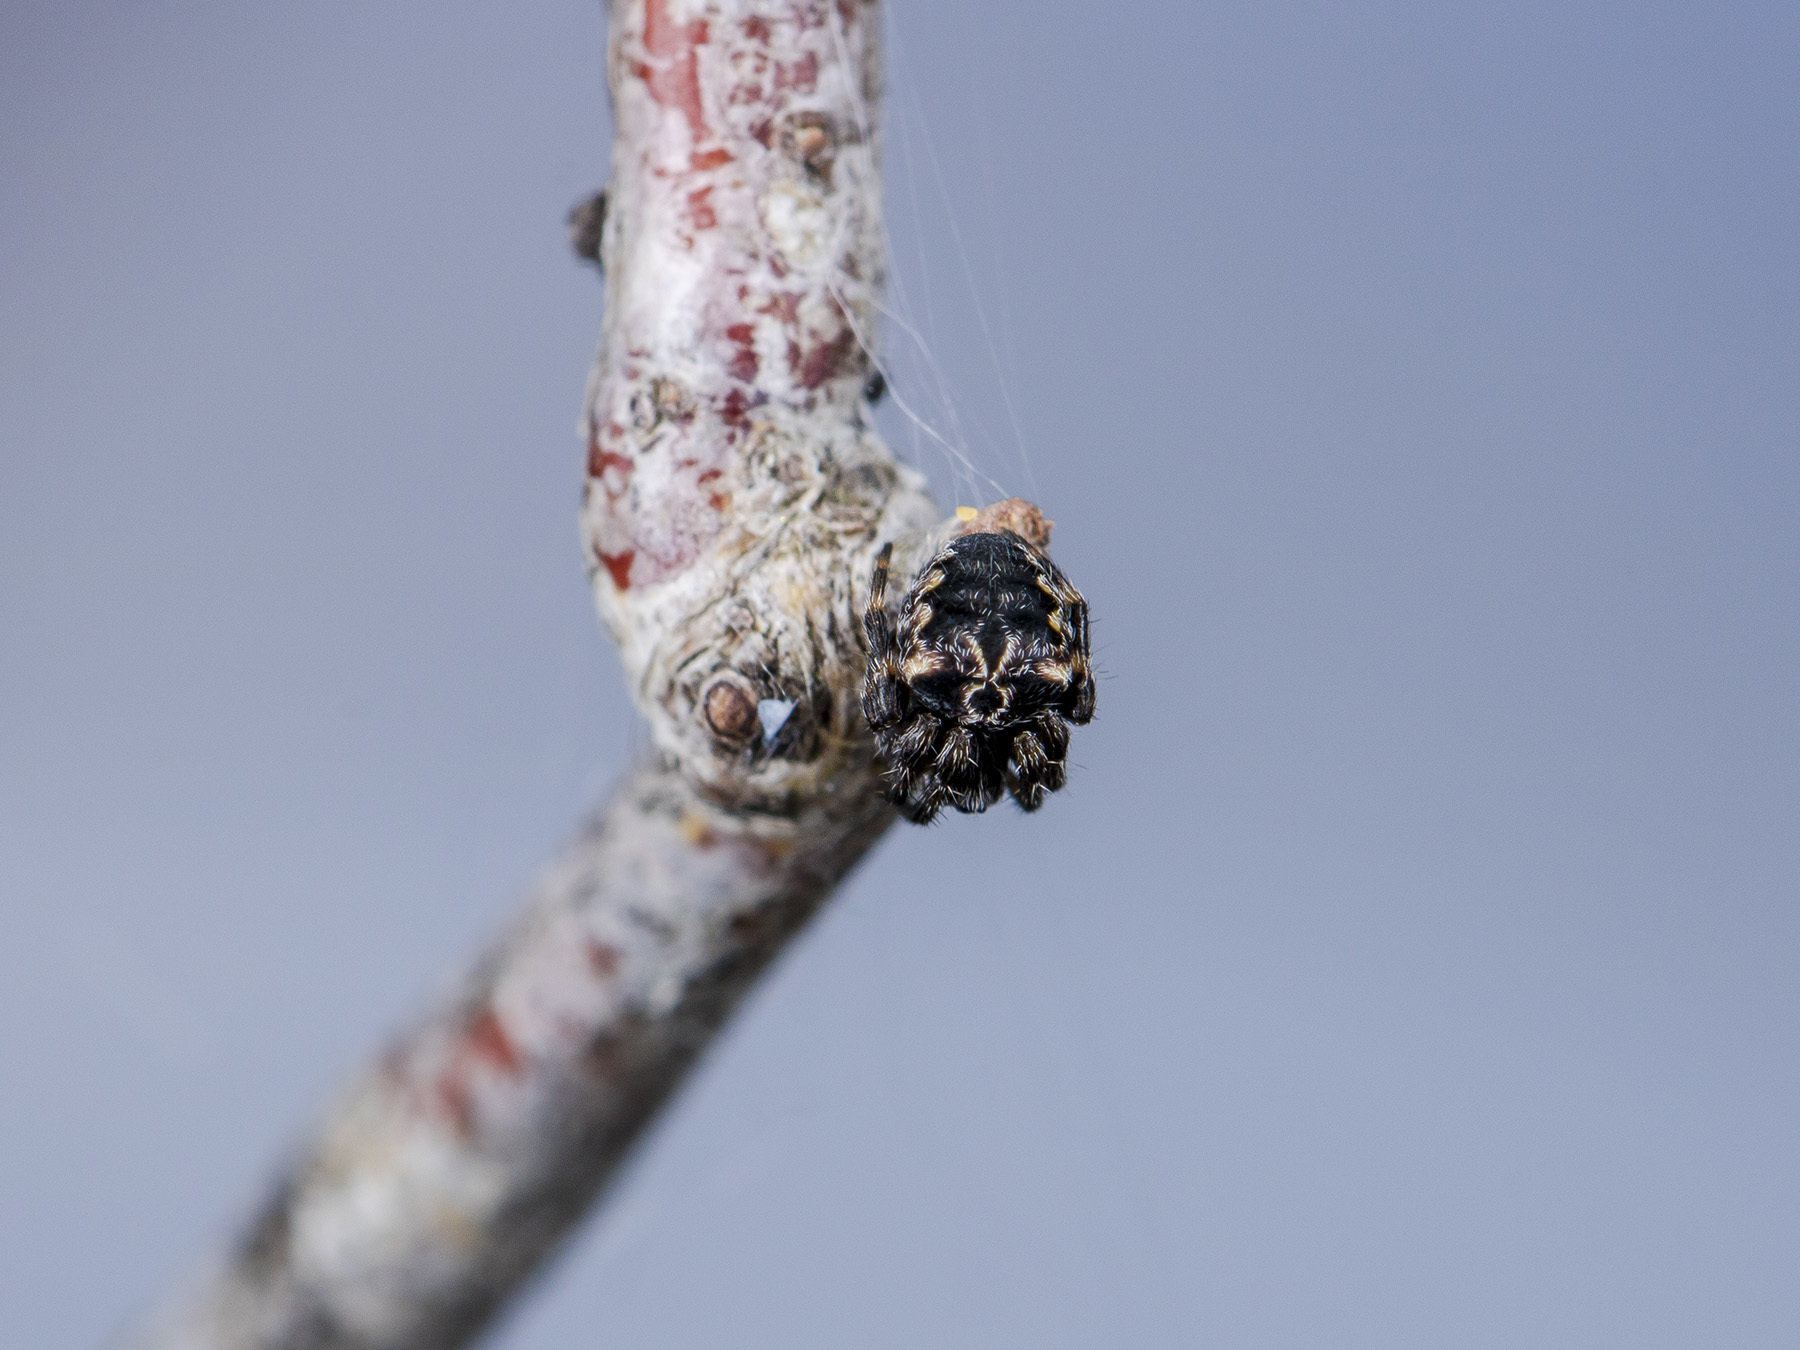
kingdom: Animalia
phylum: Arthropoda
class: Arachnida
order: Araneae
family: Araneidae
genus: Araneus
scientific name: Araneus grossus
